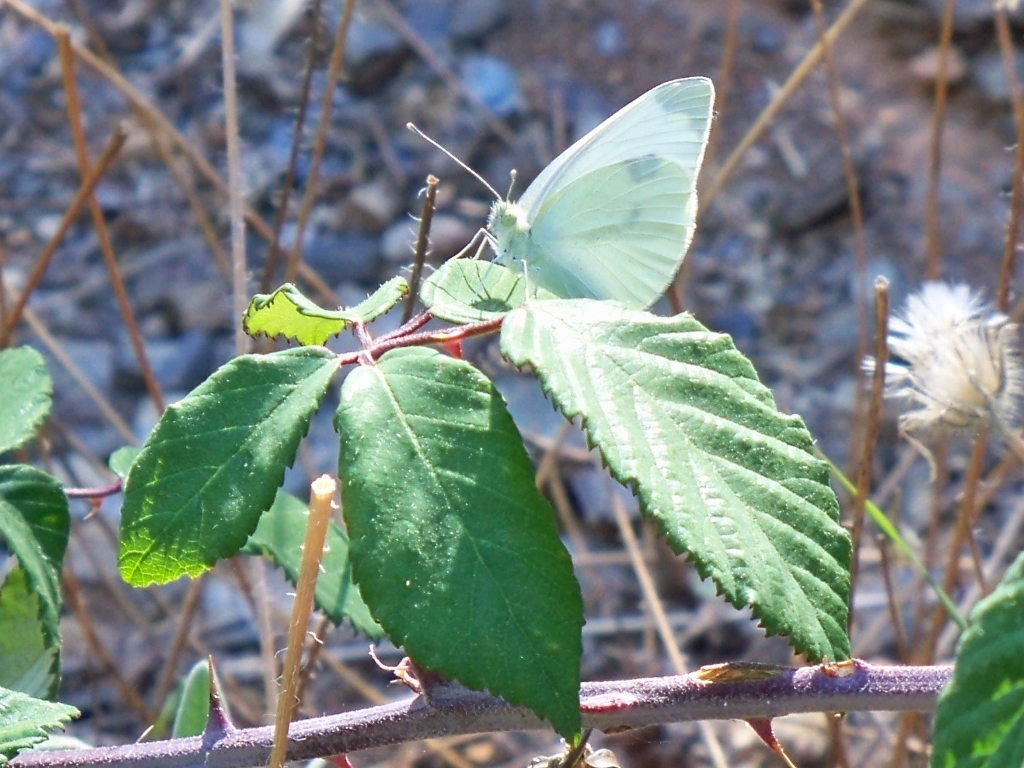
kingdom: Animalia
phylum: Arthropoda
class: Insecta
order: Lepidoptera
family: Pieridae
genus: Pieris
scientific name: Pieris rapae
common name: Small white
